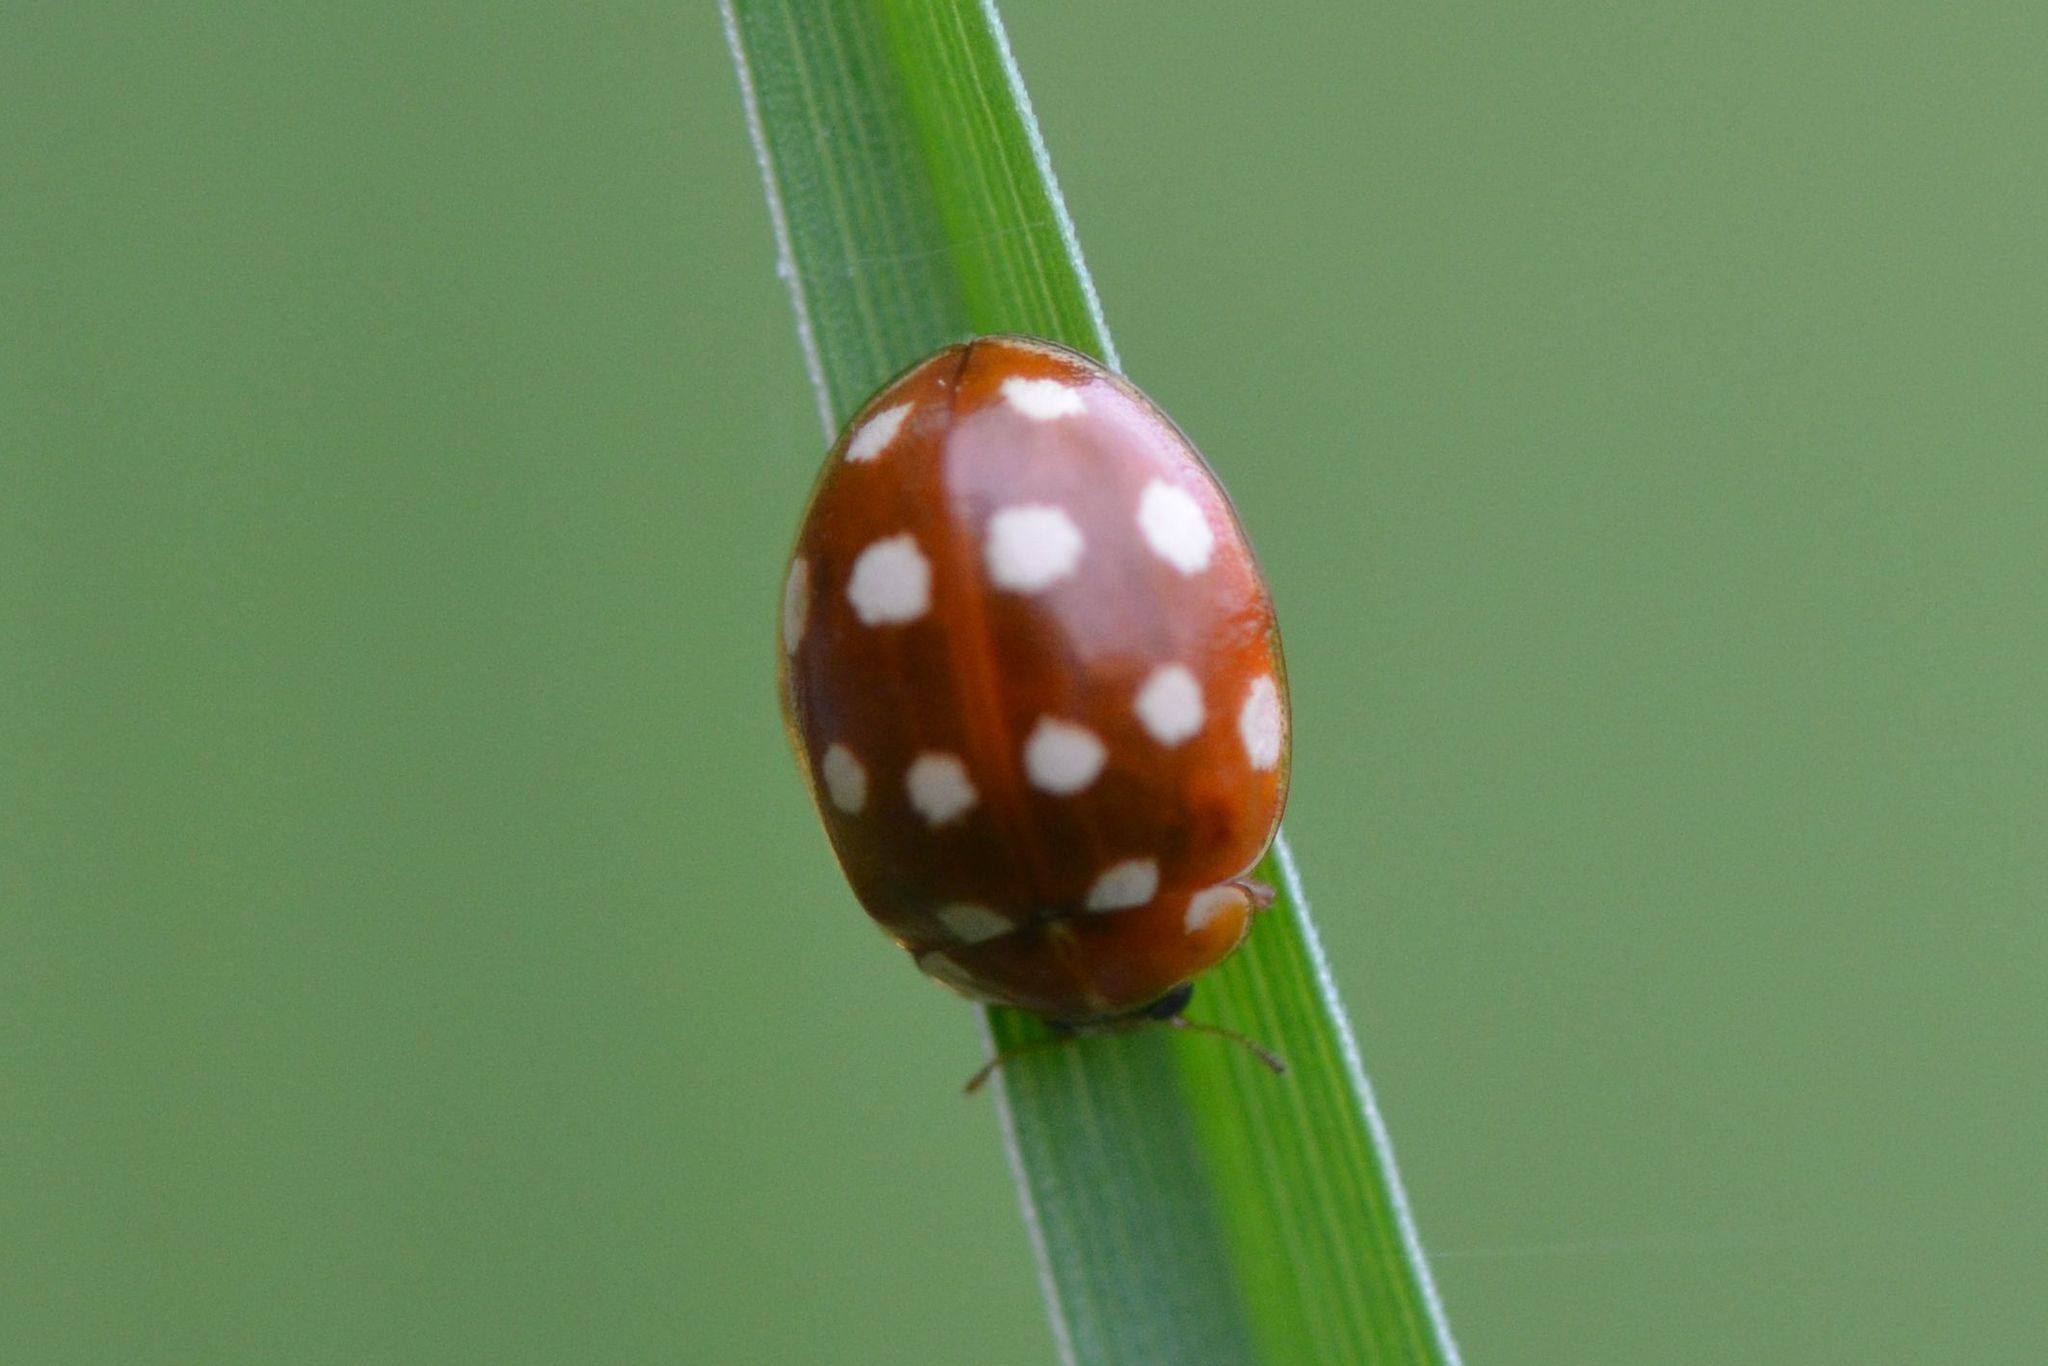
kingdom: Animalia
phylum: Arthropoda
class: Insecta
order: Coleoptera
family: Coccinellidae
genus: Calvia
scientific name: Calvia quatuordecimguttata
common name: Cream-spot ladybird
